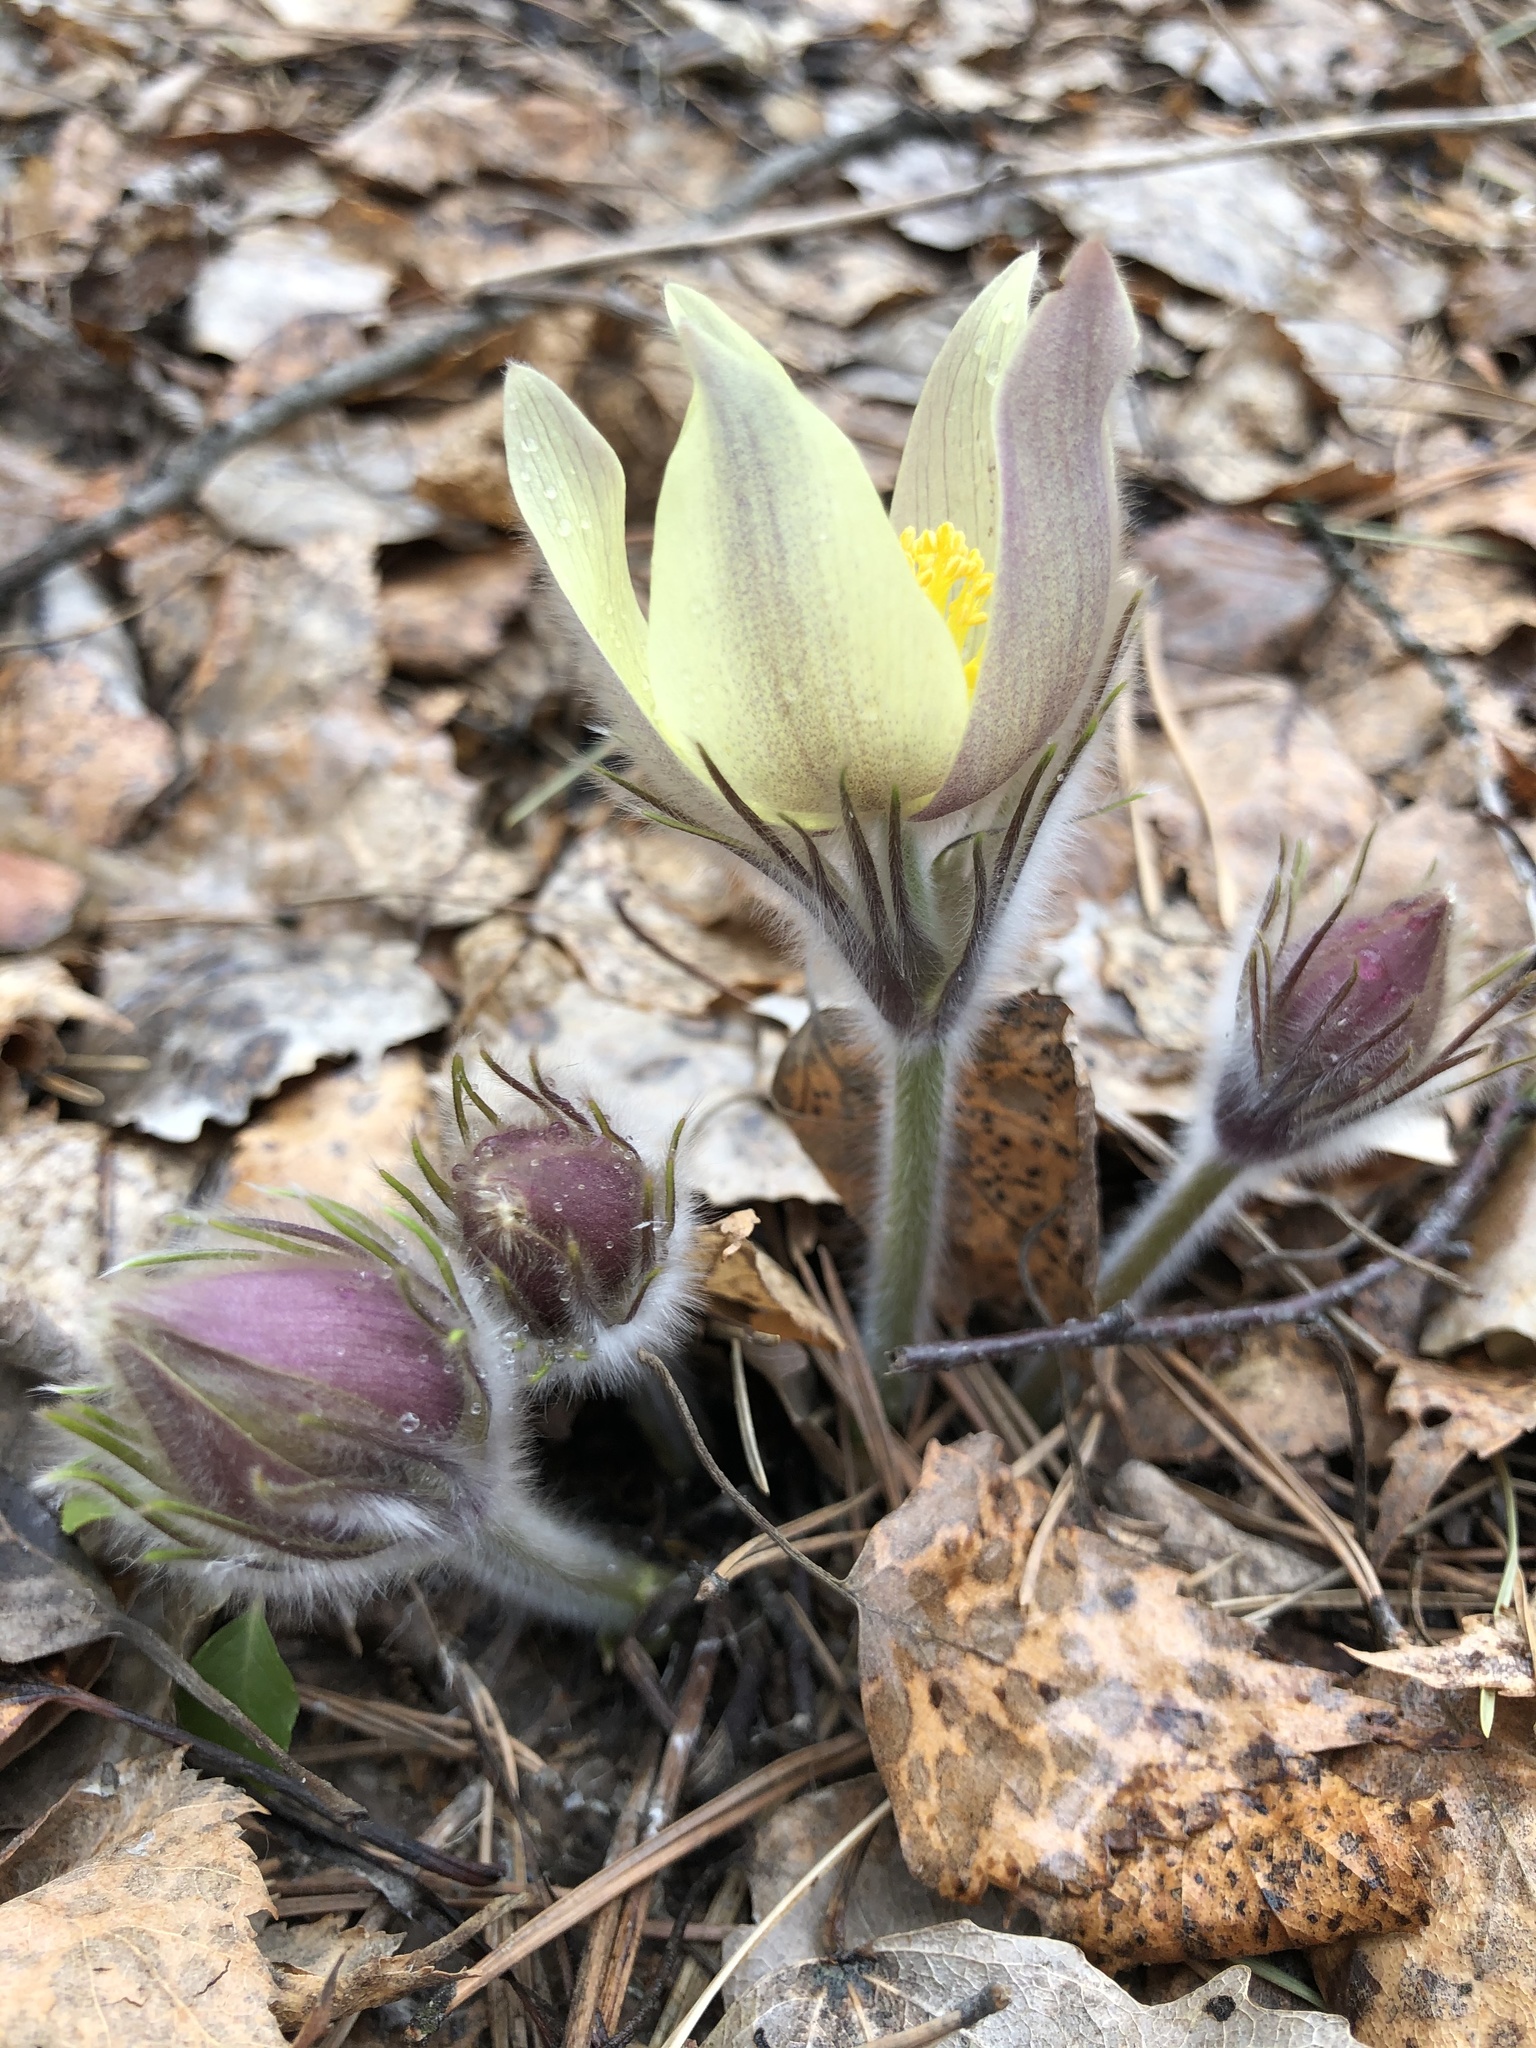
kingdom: Plantae
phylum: Tracheophyta
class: Magnoliopsida
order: Ranunculales
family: Ranunculaceae
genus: Pulsatilla
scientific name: Pulsatilla patens
